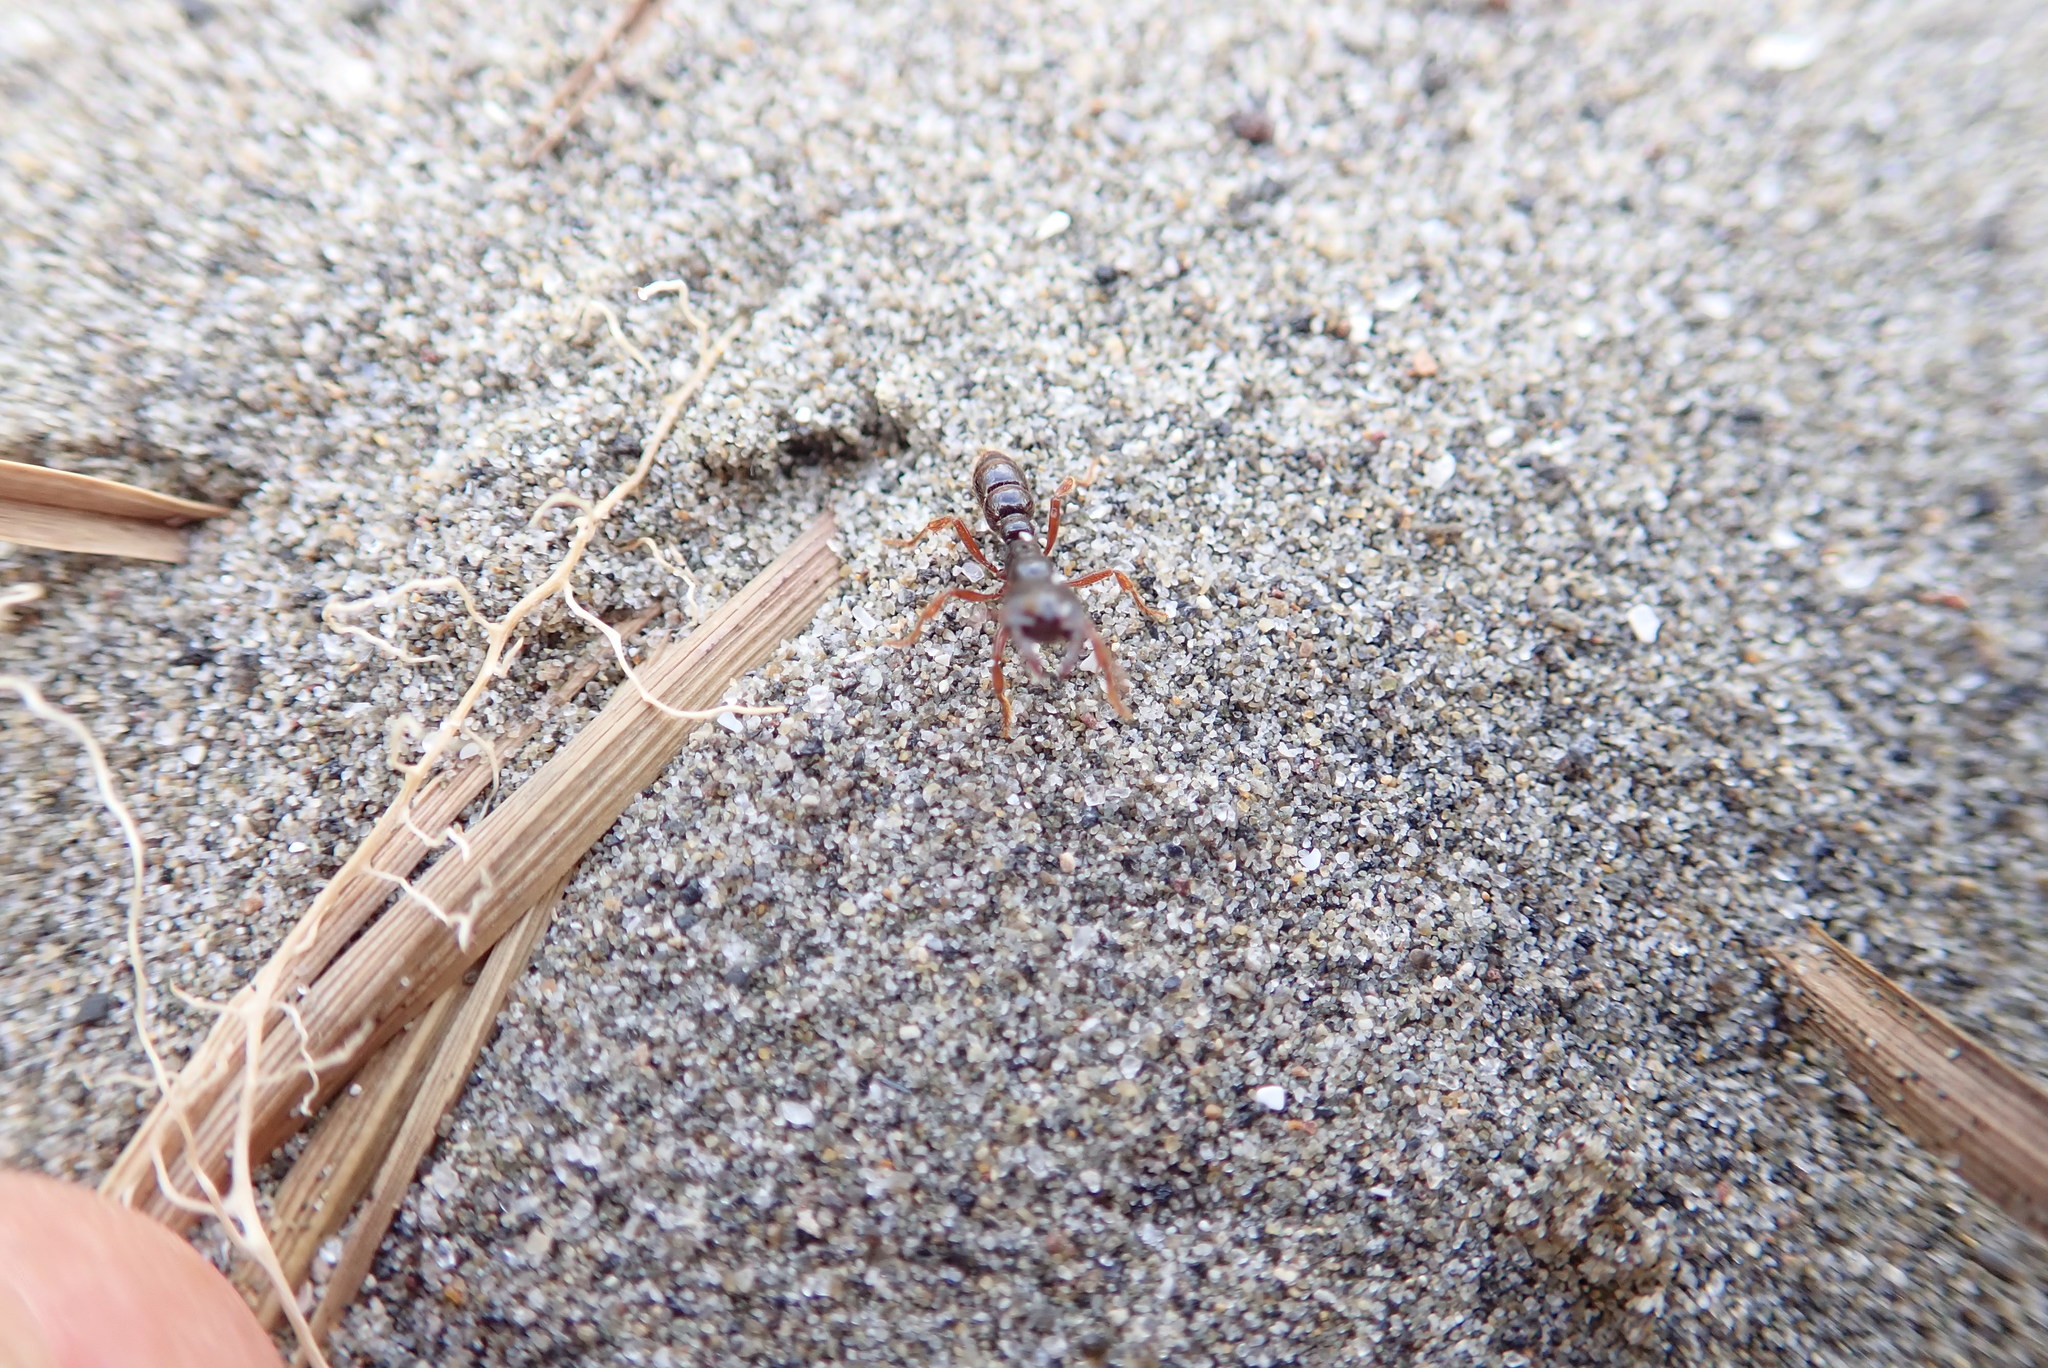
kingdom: Animalia
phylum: Arthropoda
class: Insecta
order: Hymenoptera
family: Formicidae
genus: Amblyopone
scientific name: Amblyopone australis
